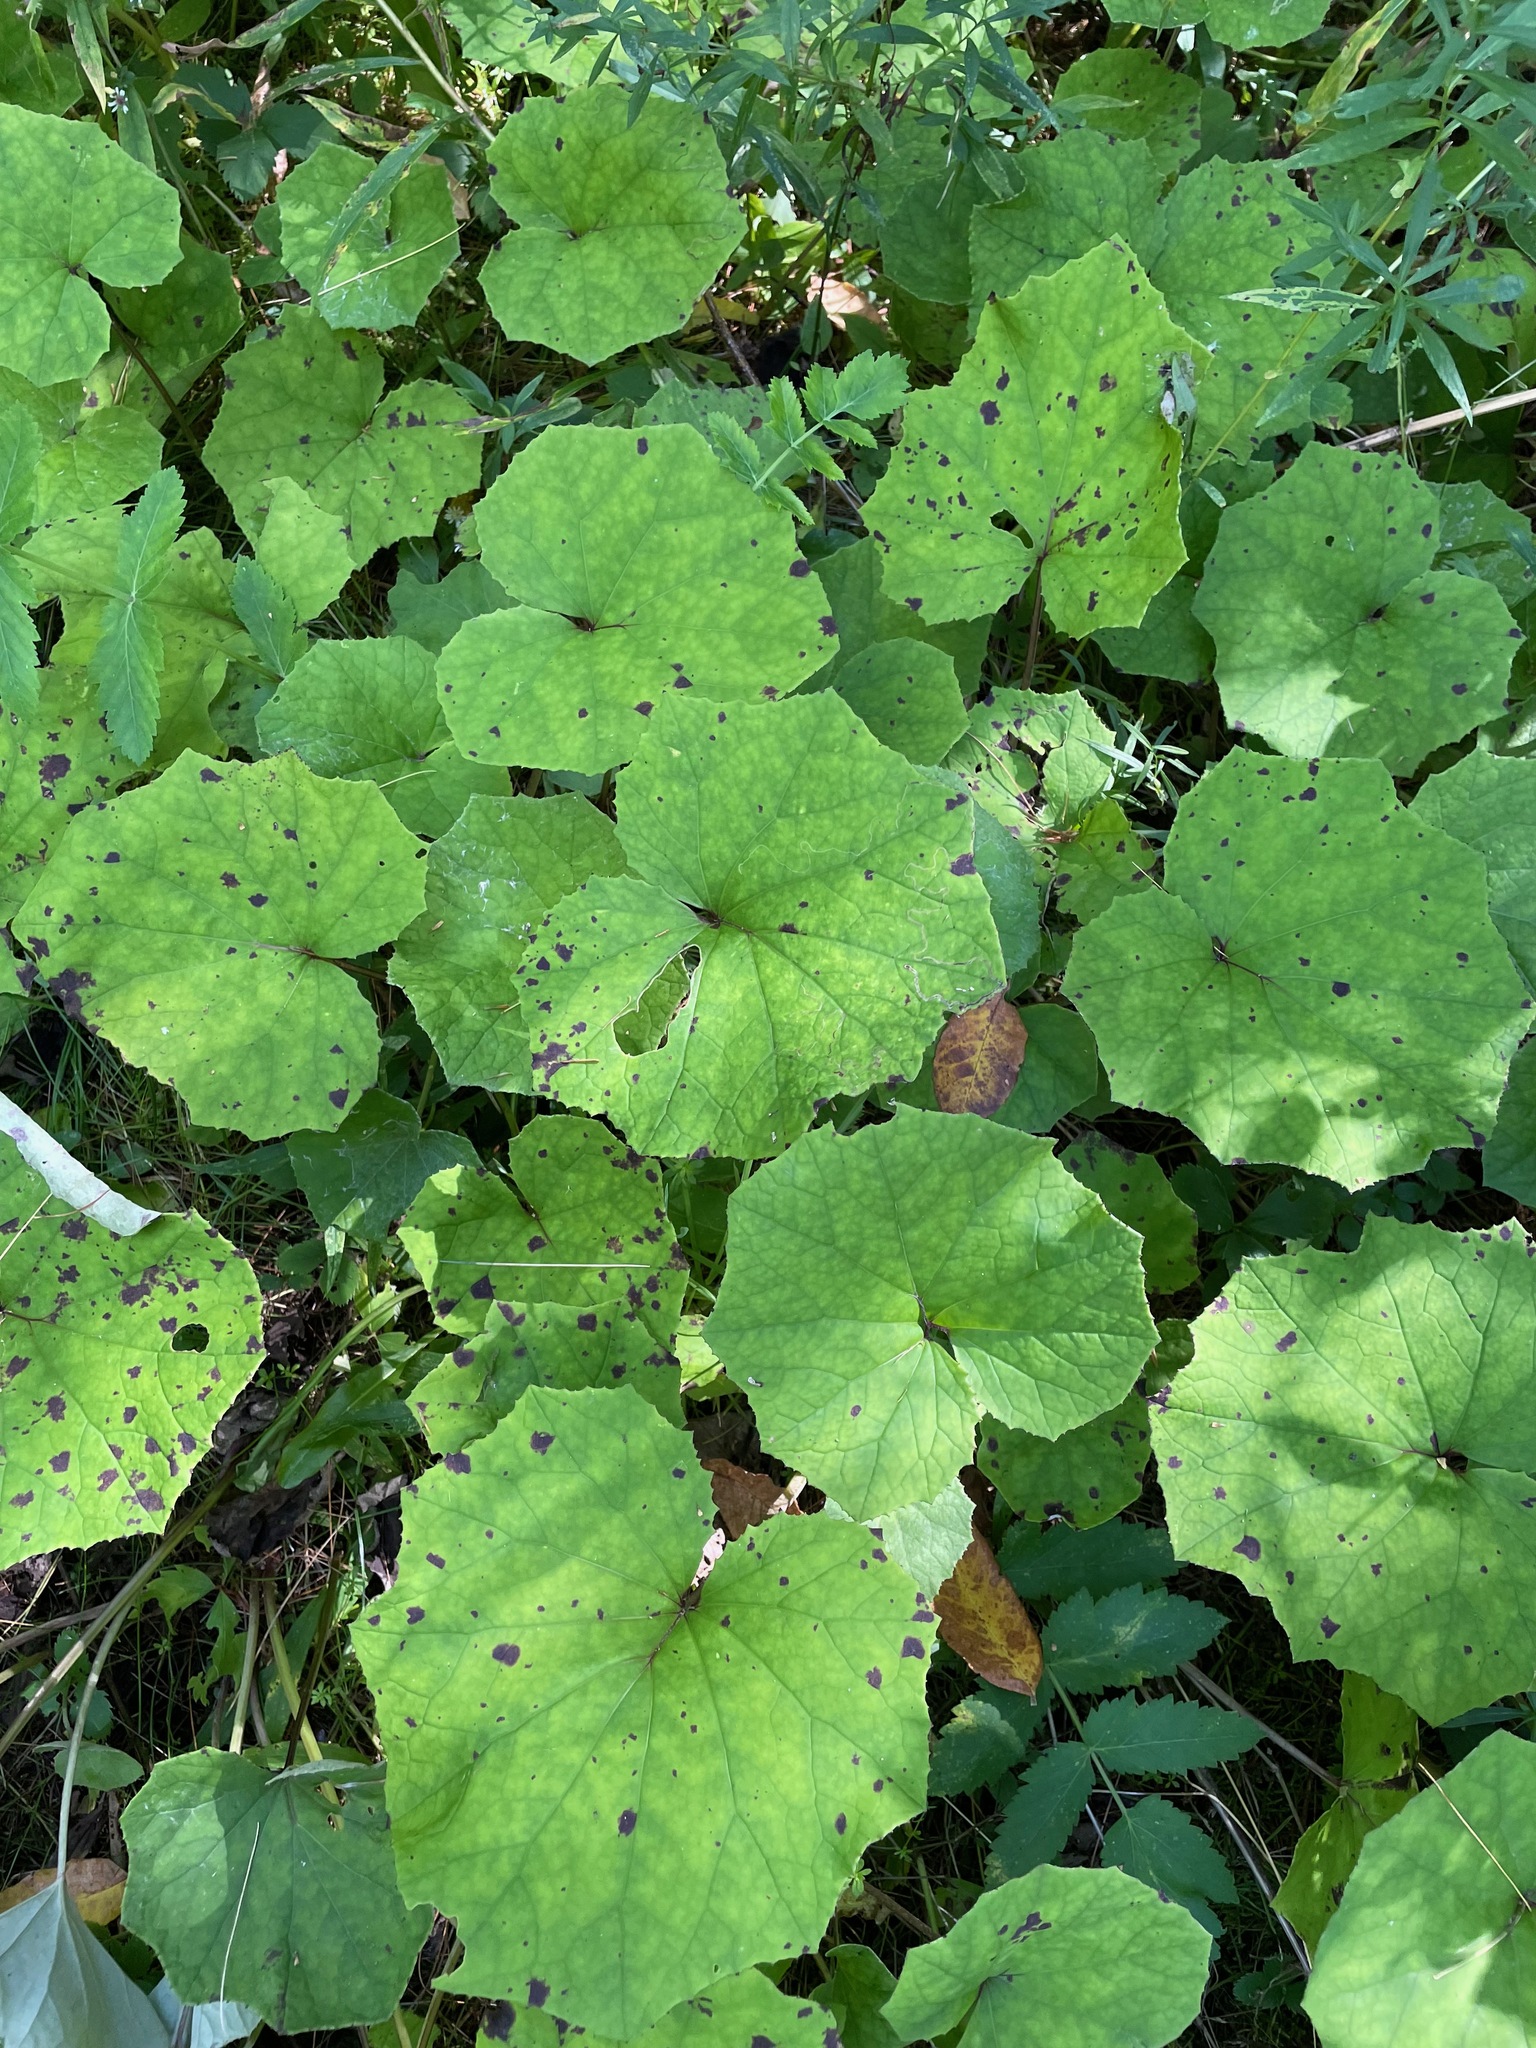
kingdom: Plantae
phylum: Tracheophyta
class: Magnoliopsida
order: Asterales
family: Asteraceae
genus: Tussilago
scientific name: Tussilago farfara
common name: Coltsfoot
